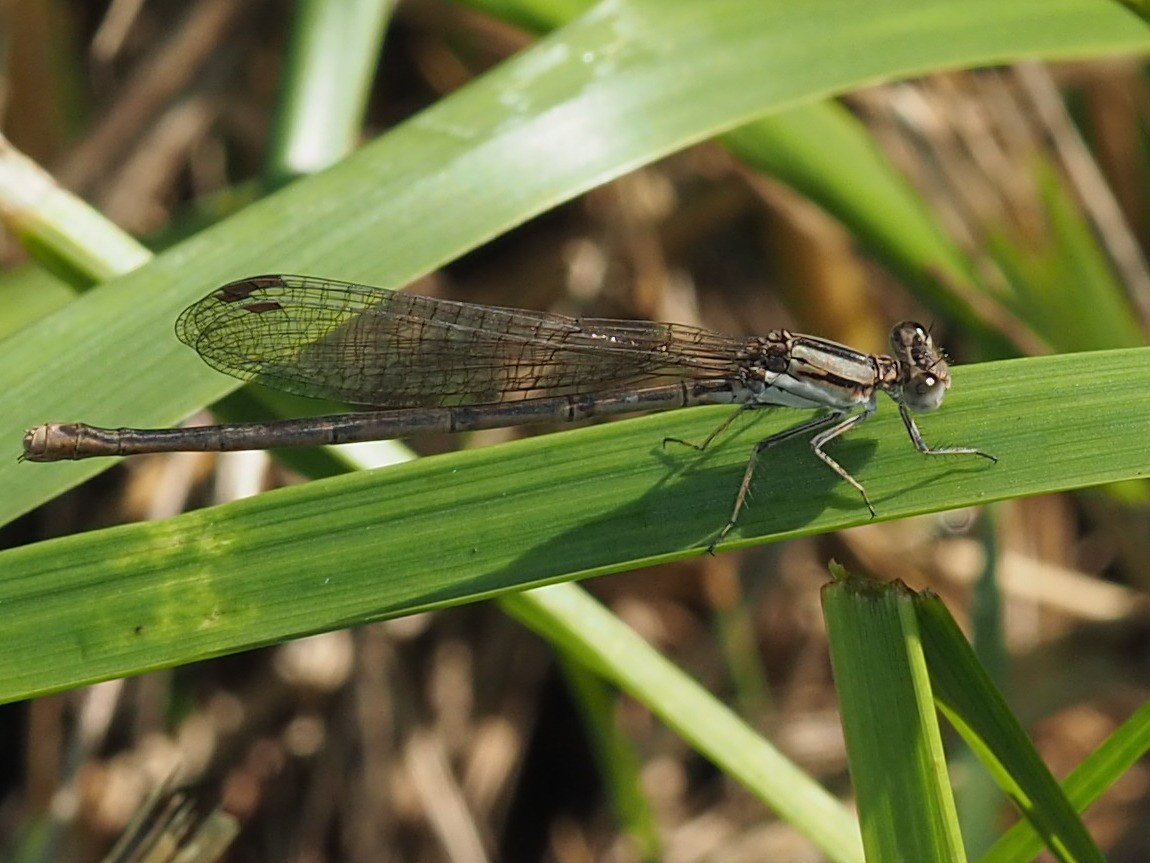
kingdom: Animalia
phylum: Arthropoda
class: Insecta
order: Odonata
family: Coenagrionidae
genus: Argia
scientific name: Argia fumipennis
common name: Variable dancer
